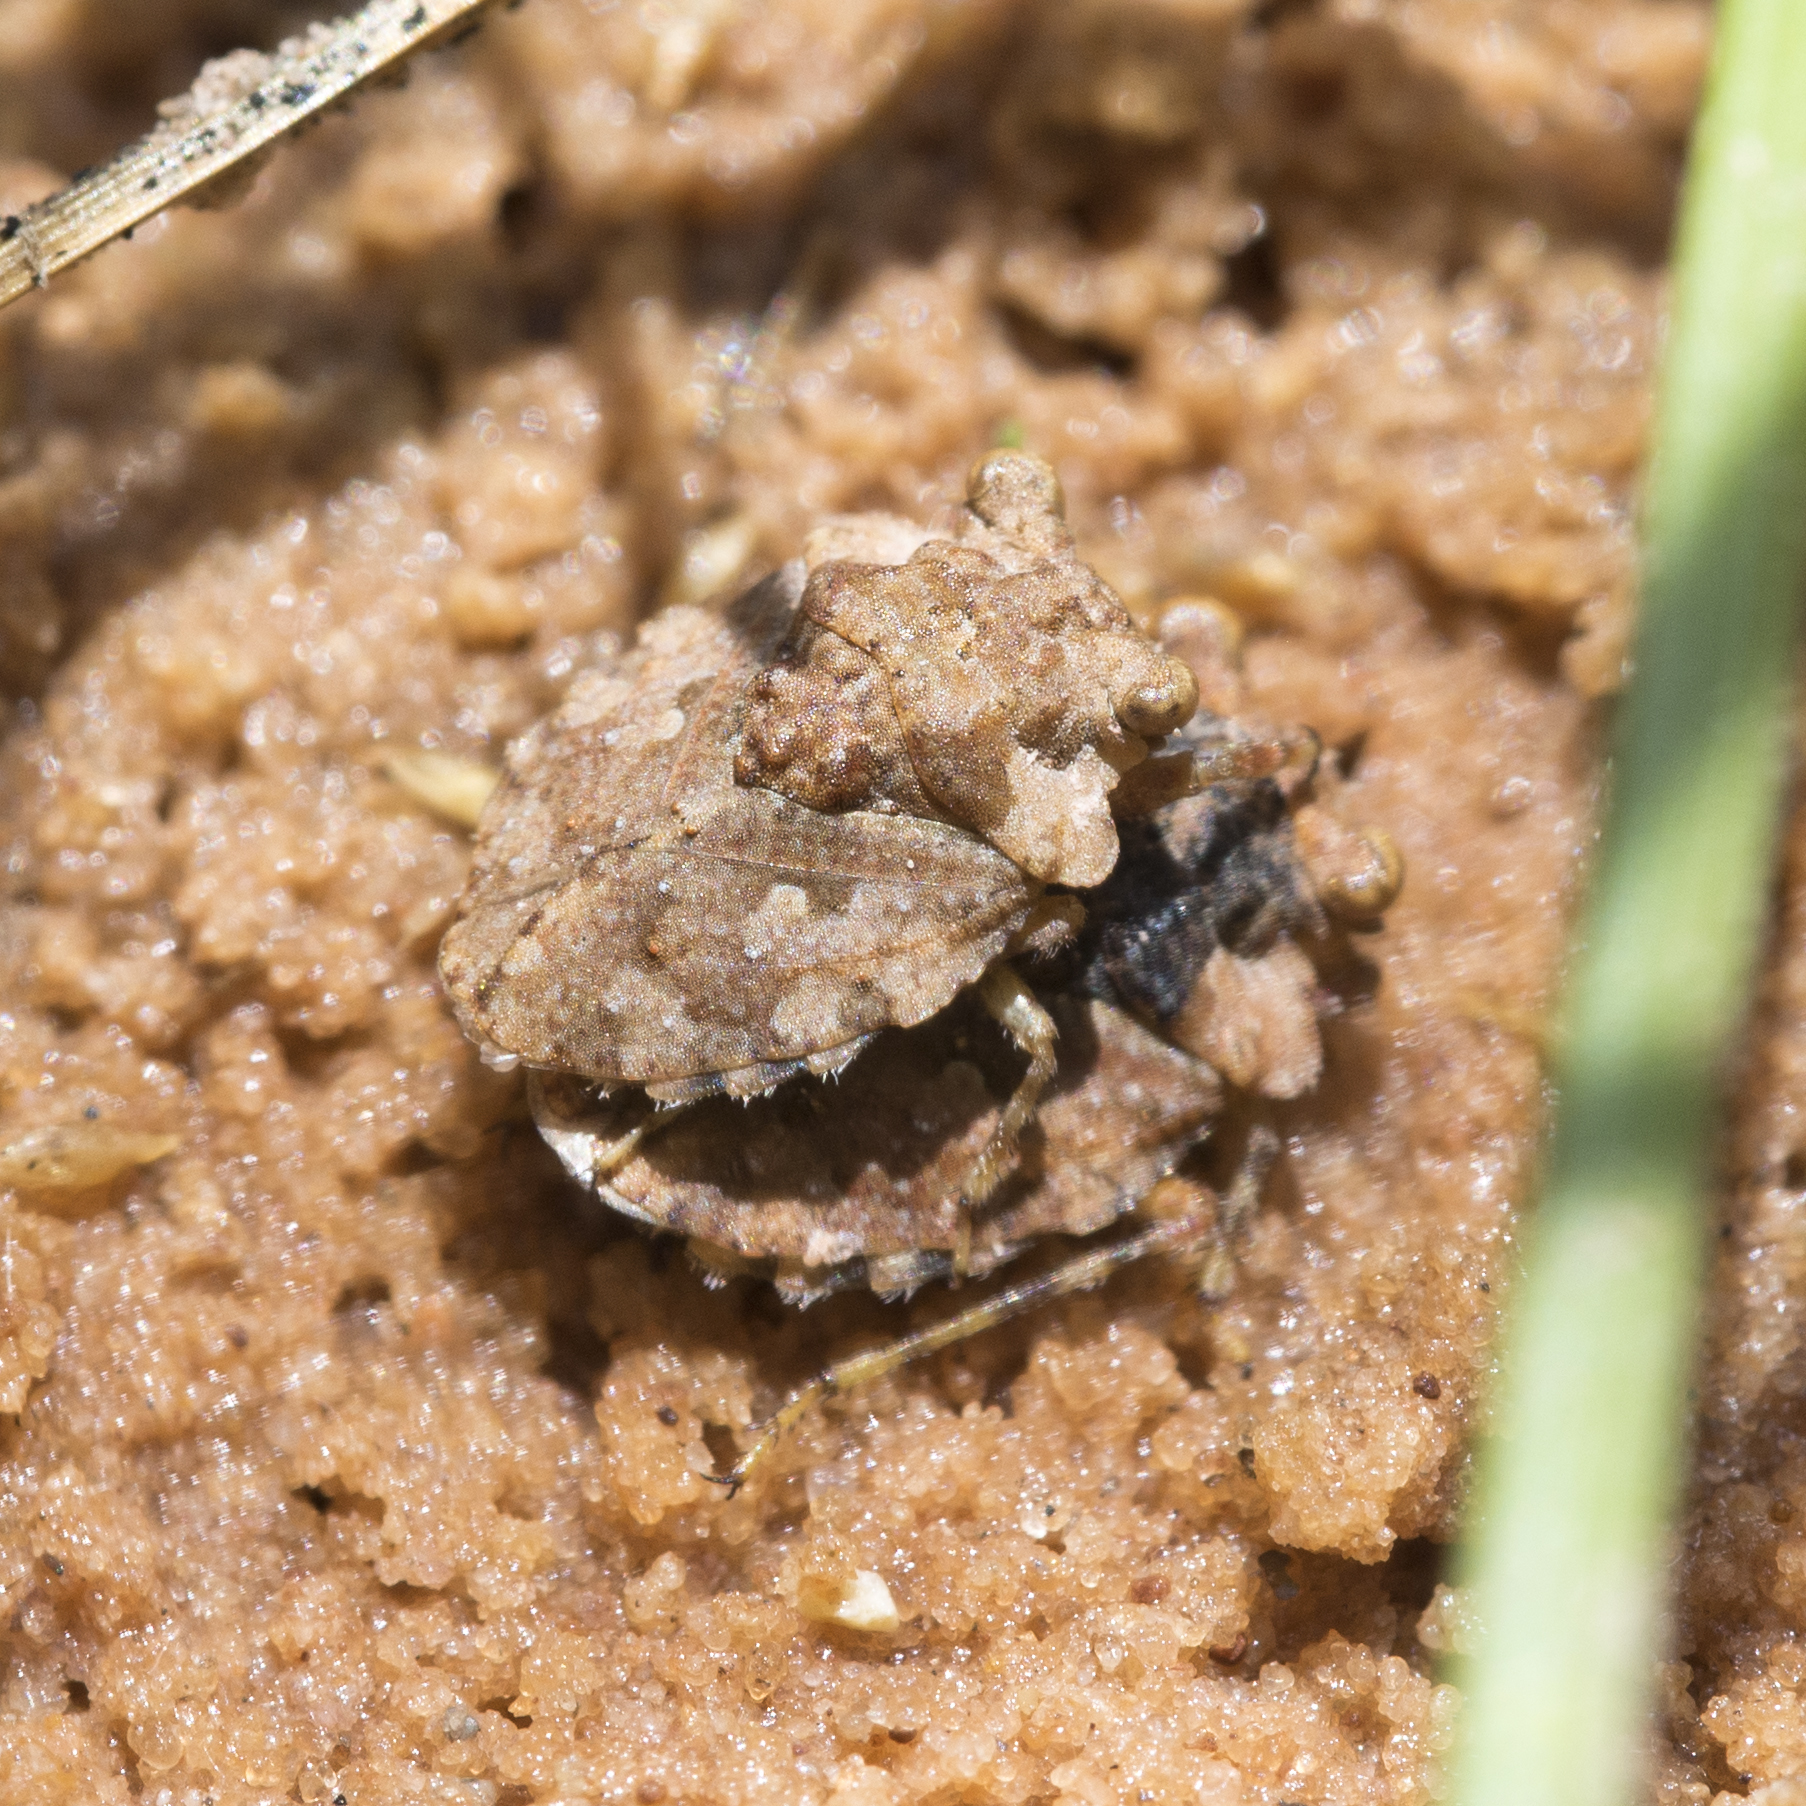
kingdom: Animalia
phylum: Arthropoda
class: Insecta
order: Hemiptera
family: Gelastocoridae
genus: Gelastocoris
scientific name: Gelastocoris oculatus
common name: Toad bug
